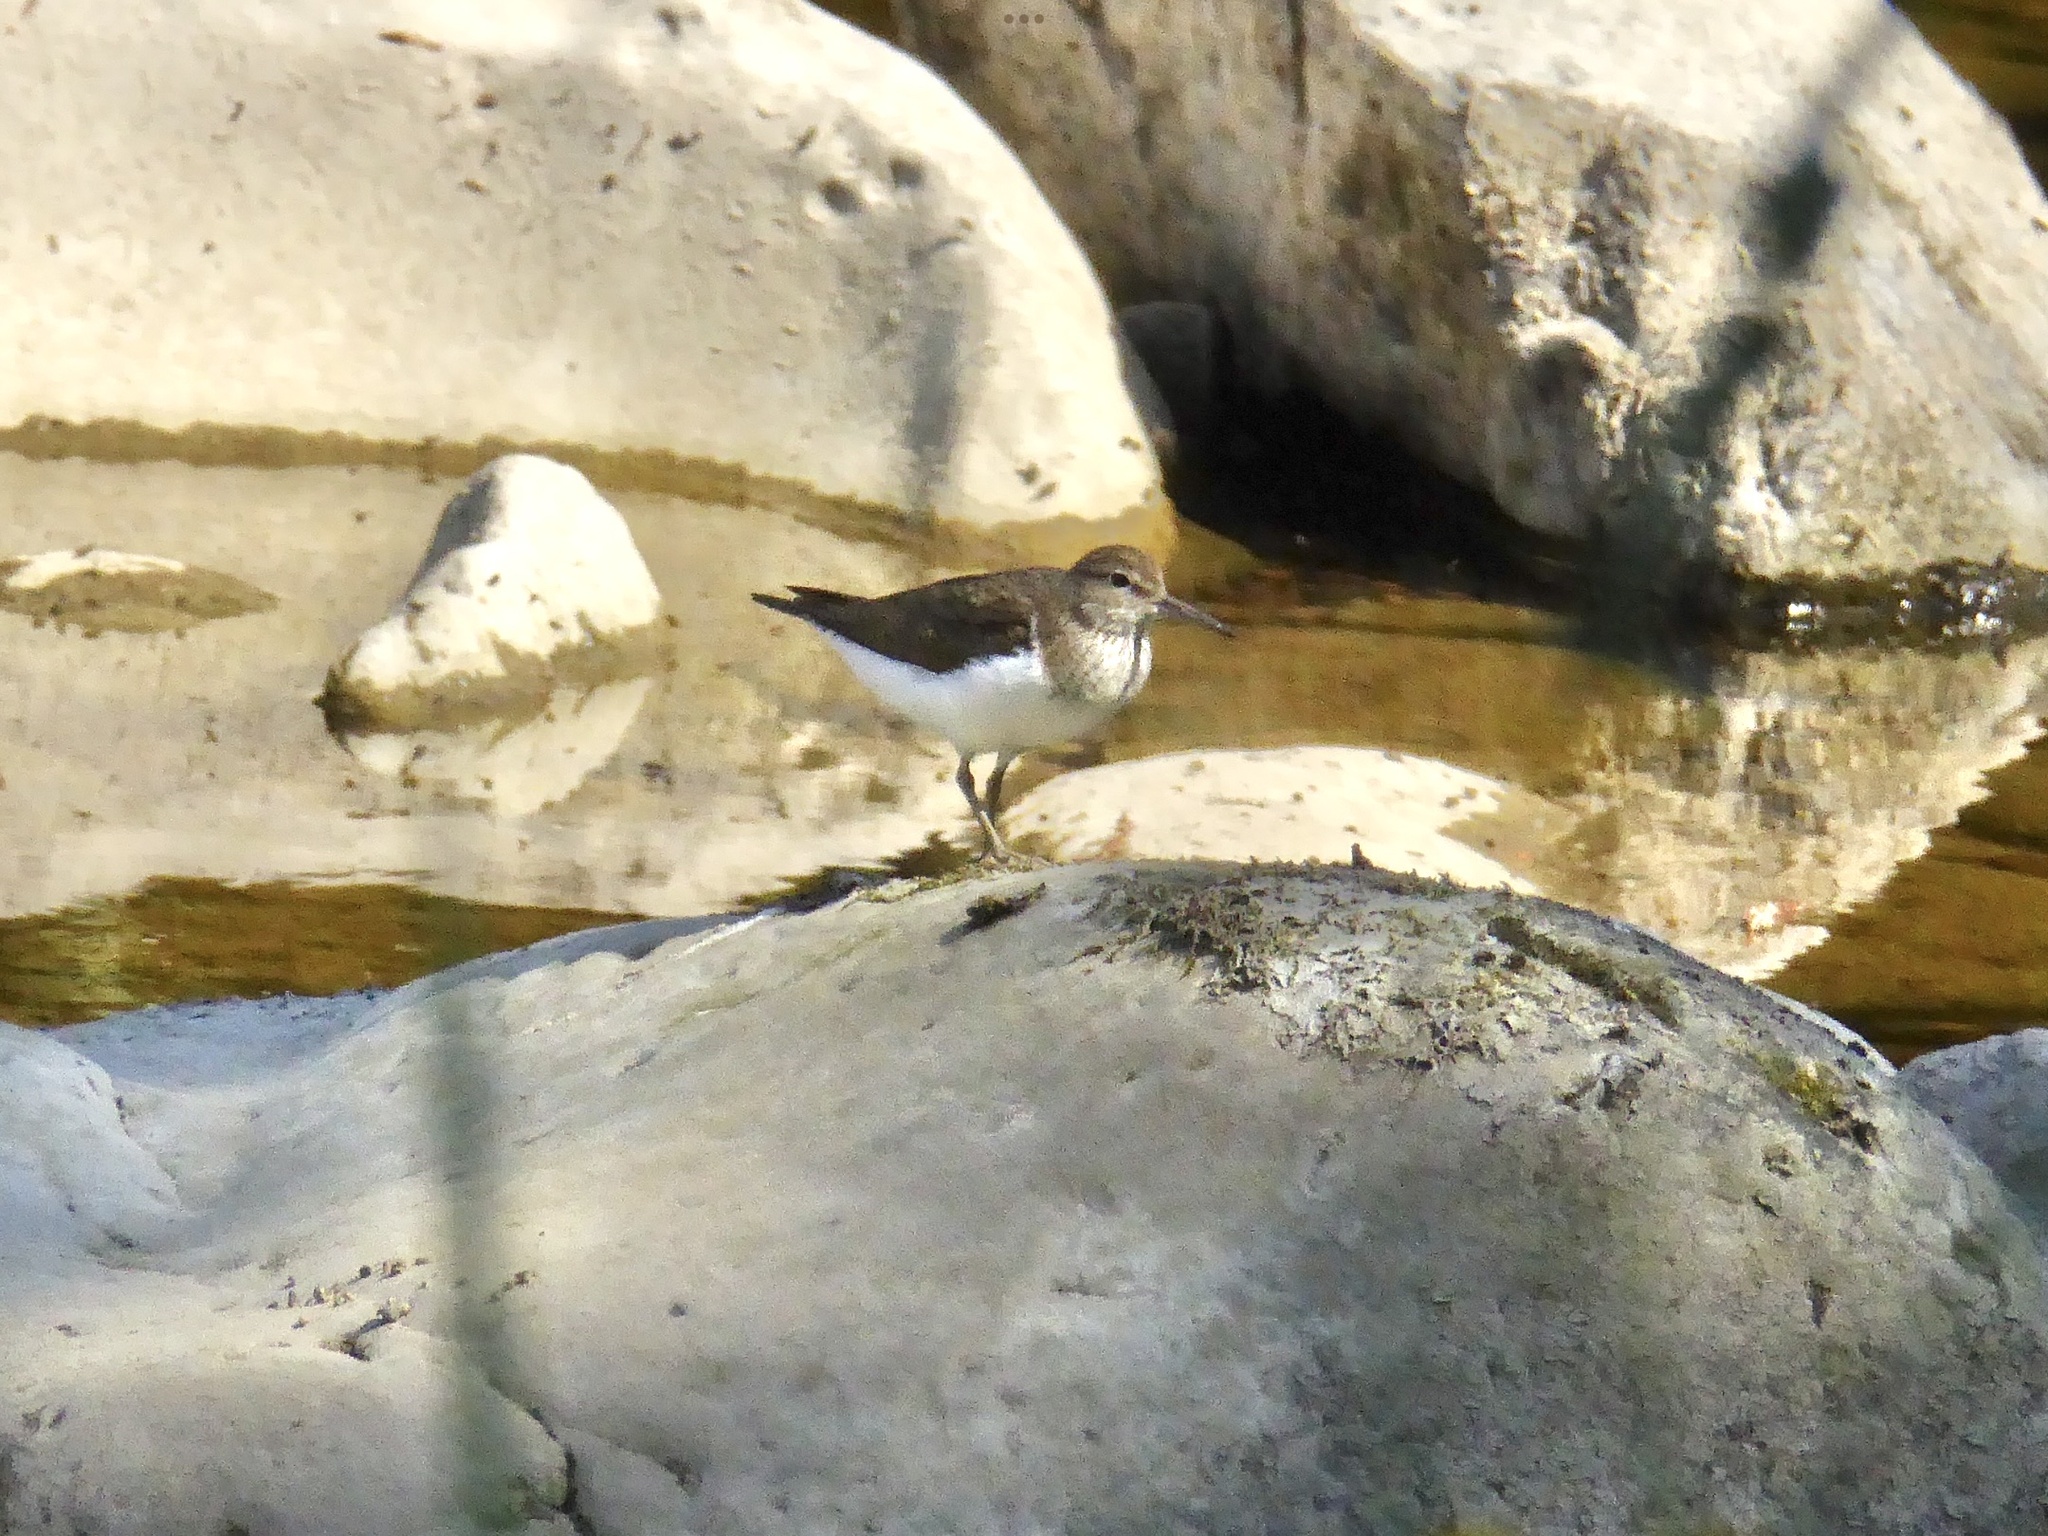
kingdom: Animalia
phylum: Chordata
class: Aves
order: Charadriiformes
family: Scolopacidae
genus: Actitis
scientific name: Actitis hypoleucos
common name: Common sandpiper
